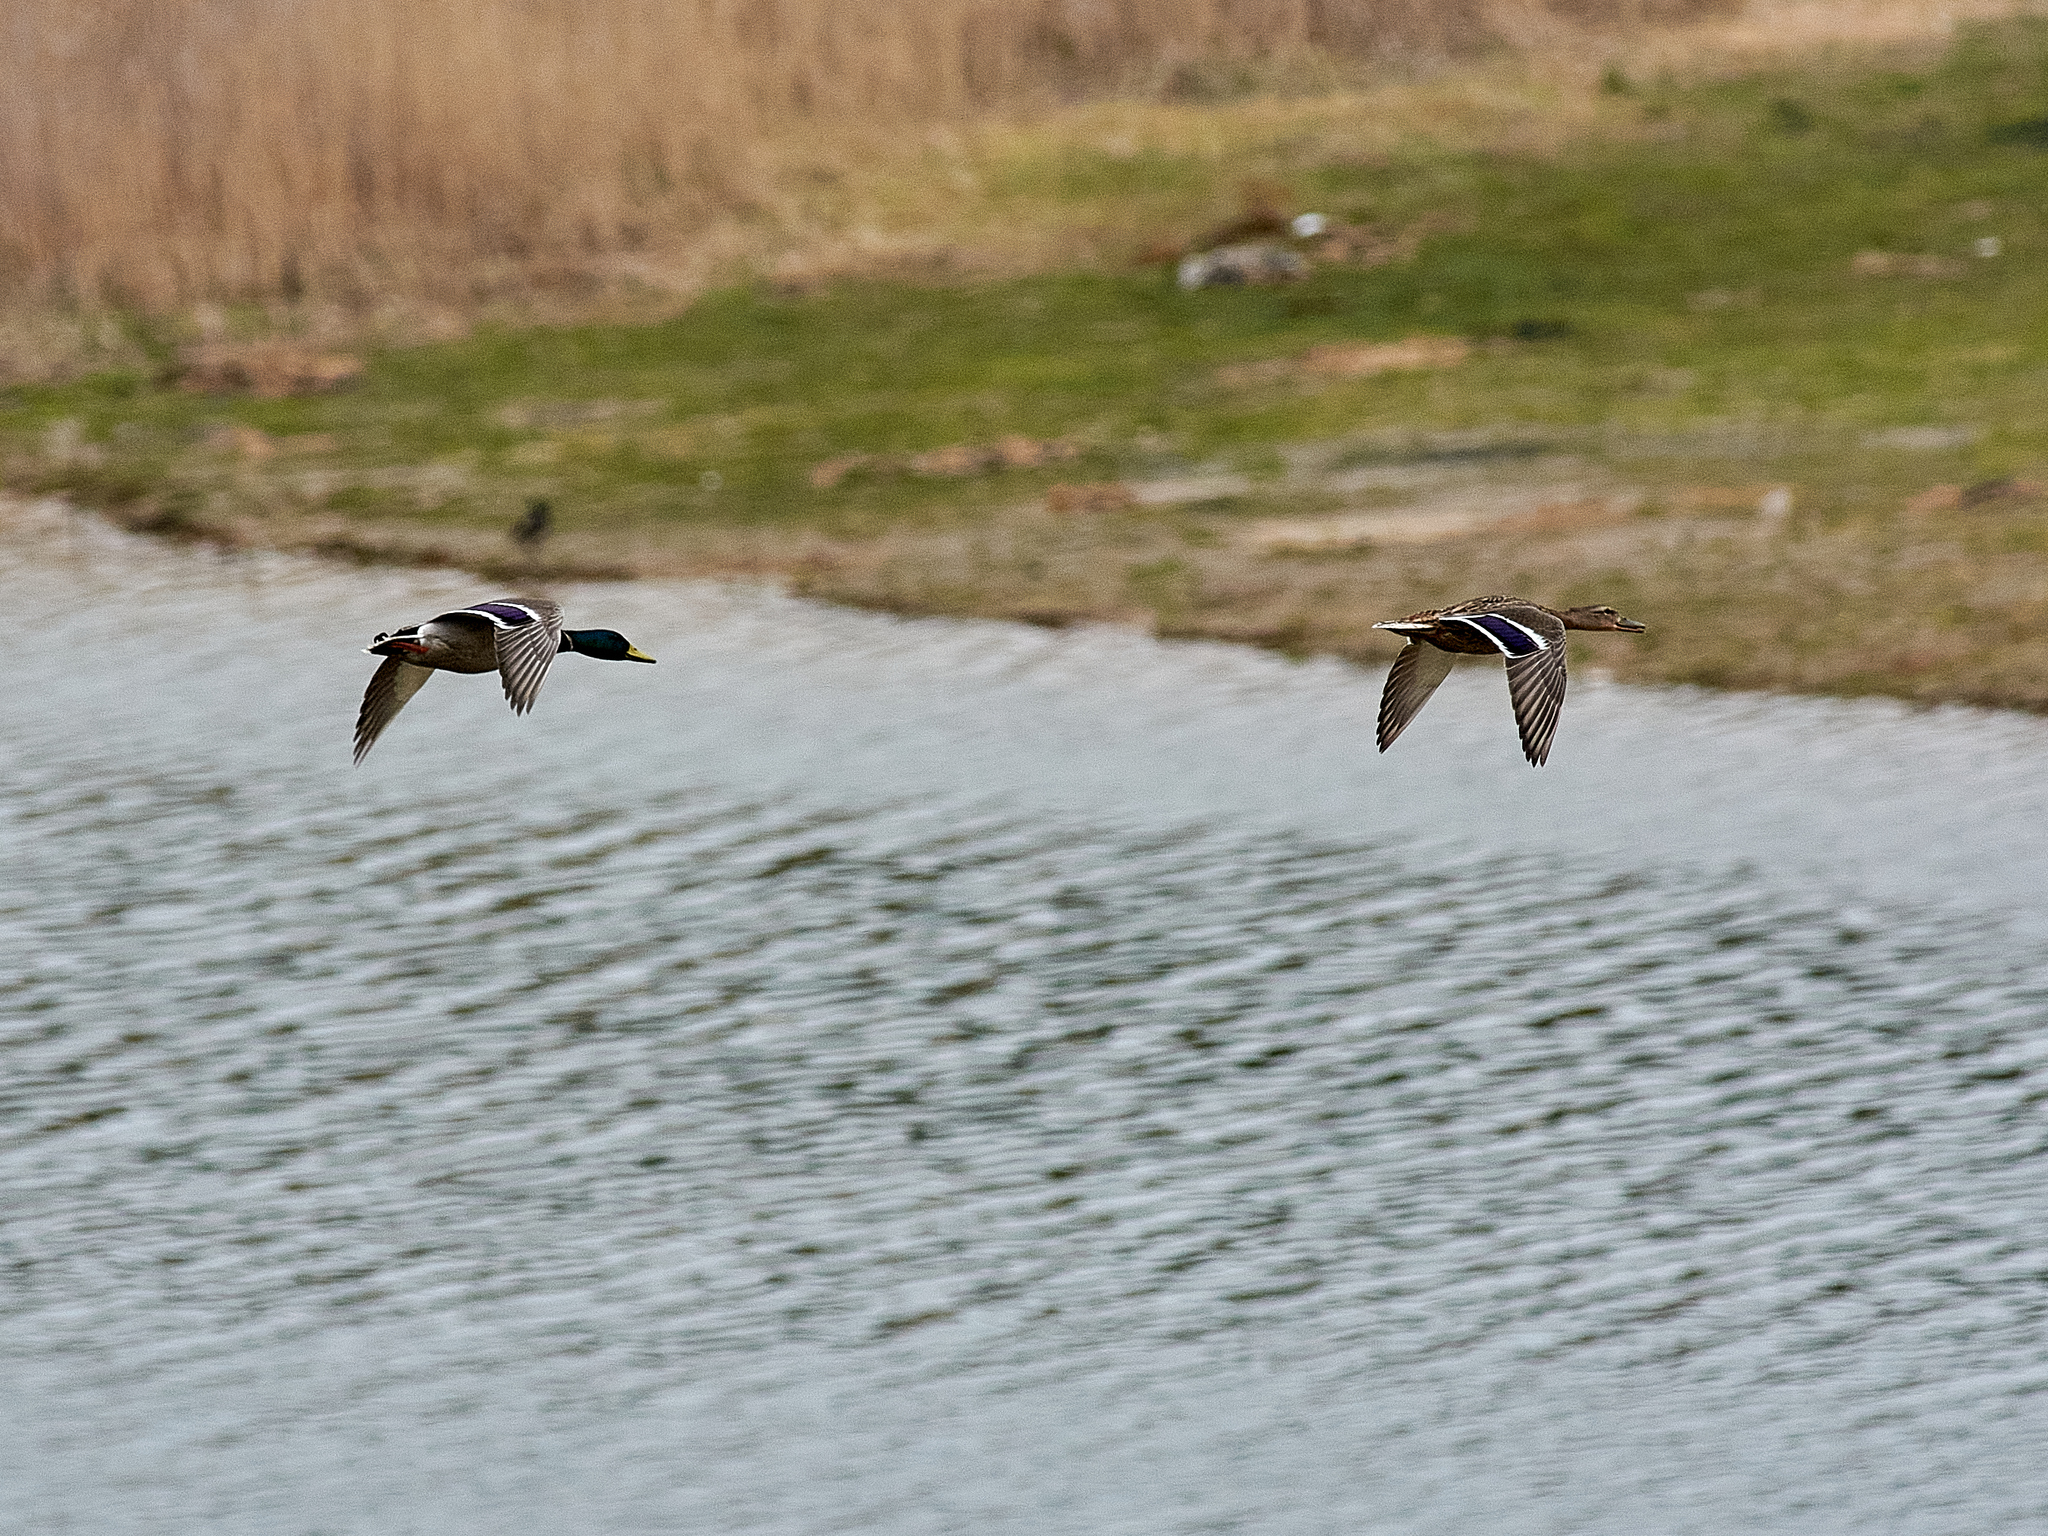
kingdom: Animalia
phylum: Chordata
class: Aves
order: Anseriformes
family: Anatidae
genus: Anas
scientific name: Anas platyrhynchos
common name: Mallard
